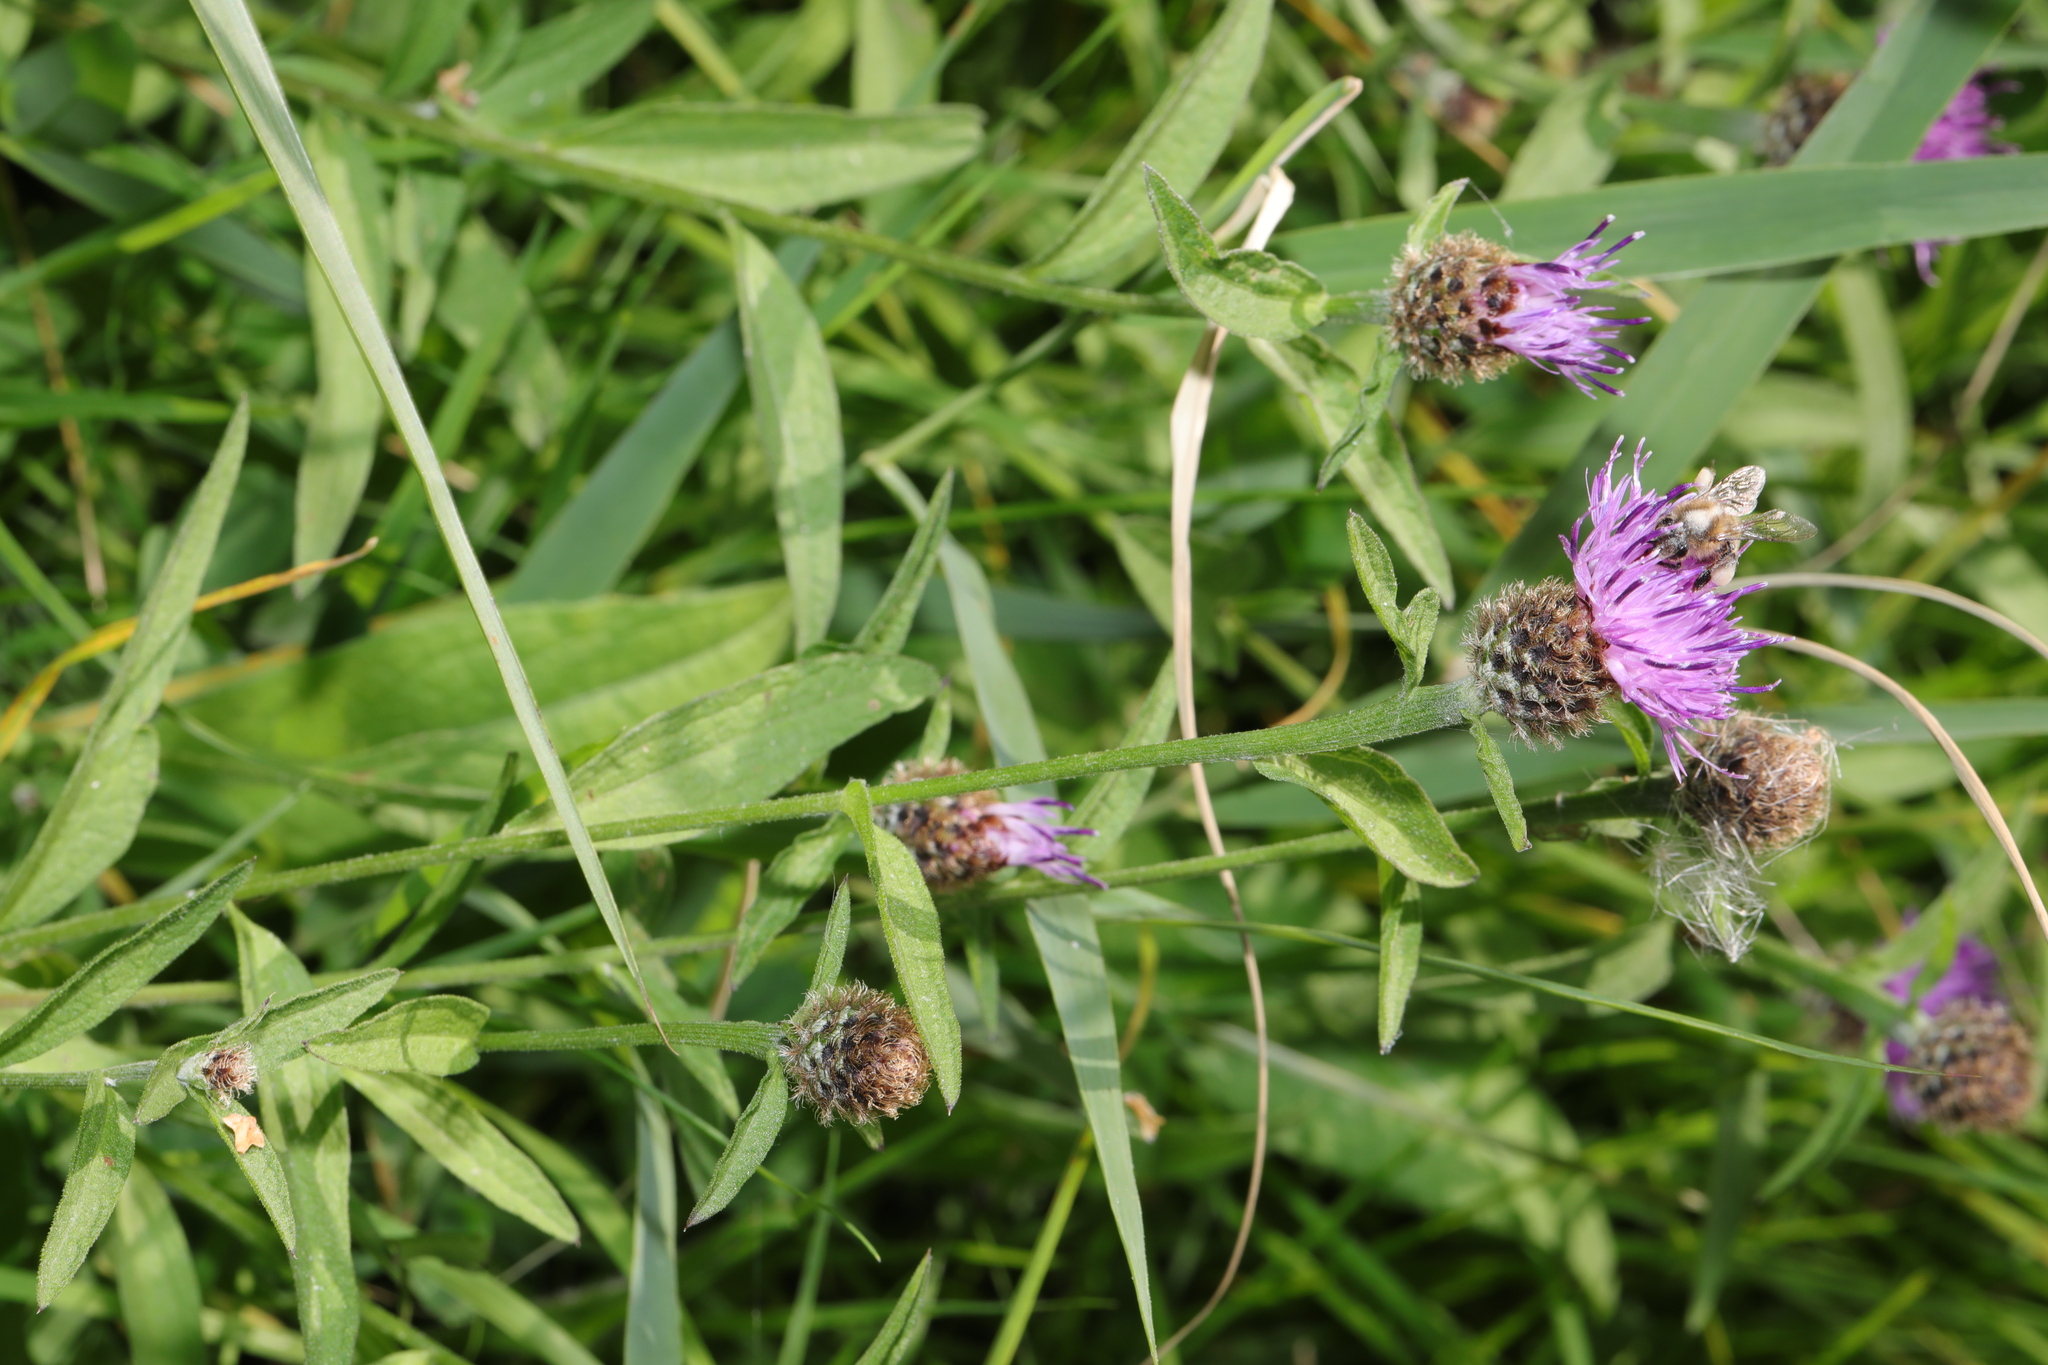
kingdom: Plantae
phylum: Tracheophyta
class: Magnoliopsida
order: Asterales
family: Asteraceae
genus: Centaurea
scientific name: Centaurea nigra
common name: Lesser knapweed
